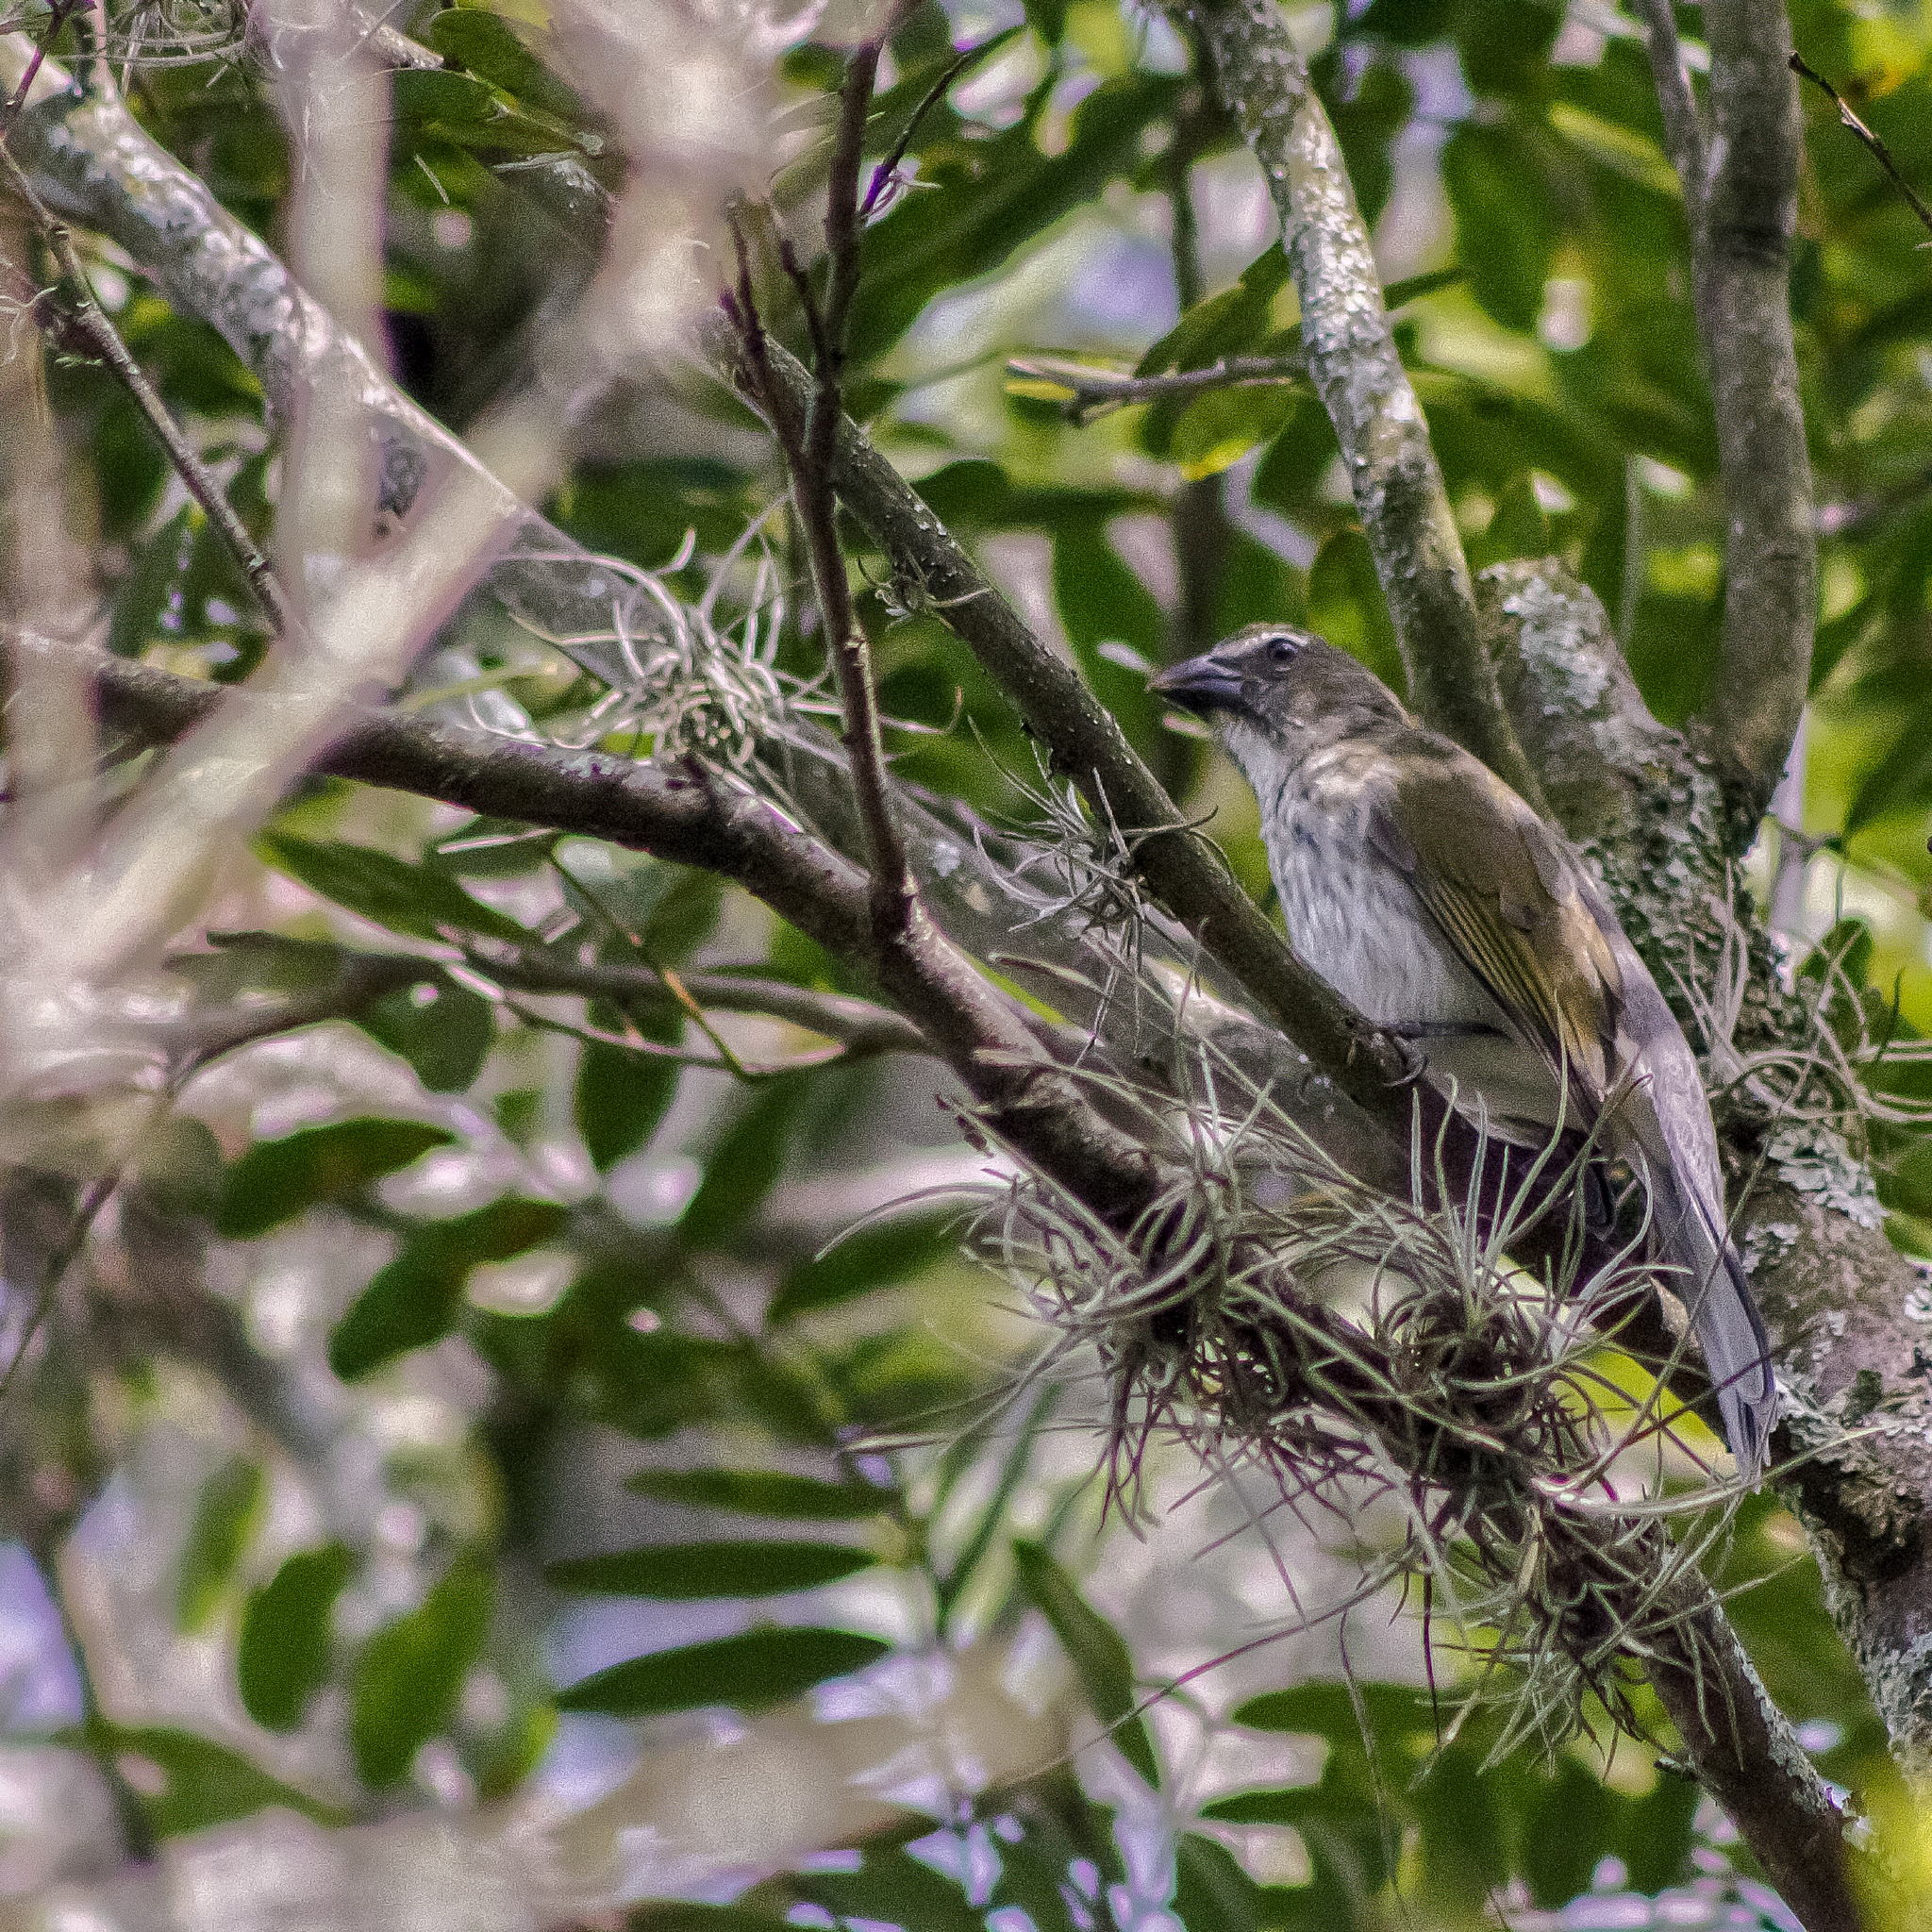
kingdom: Animalia
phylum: Chordata
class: Aves
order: Passeriformes
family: Thraupidae
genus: Saltator
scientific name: Saltator striatipectus
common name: Streaked saltator
